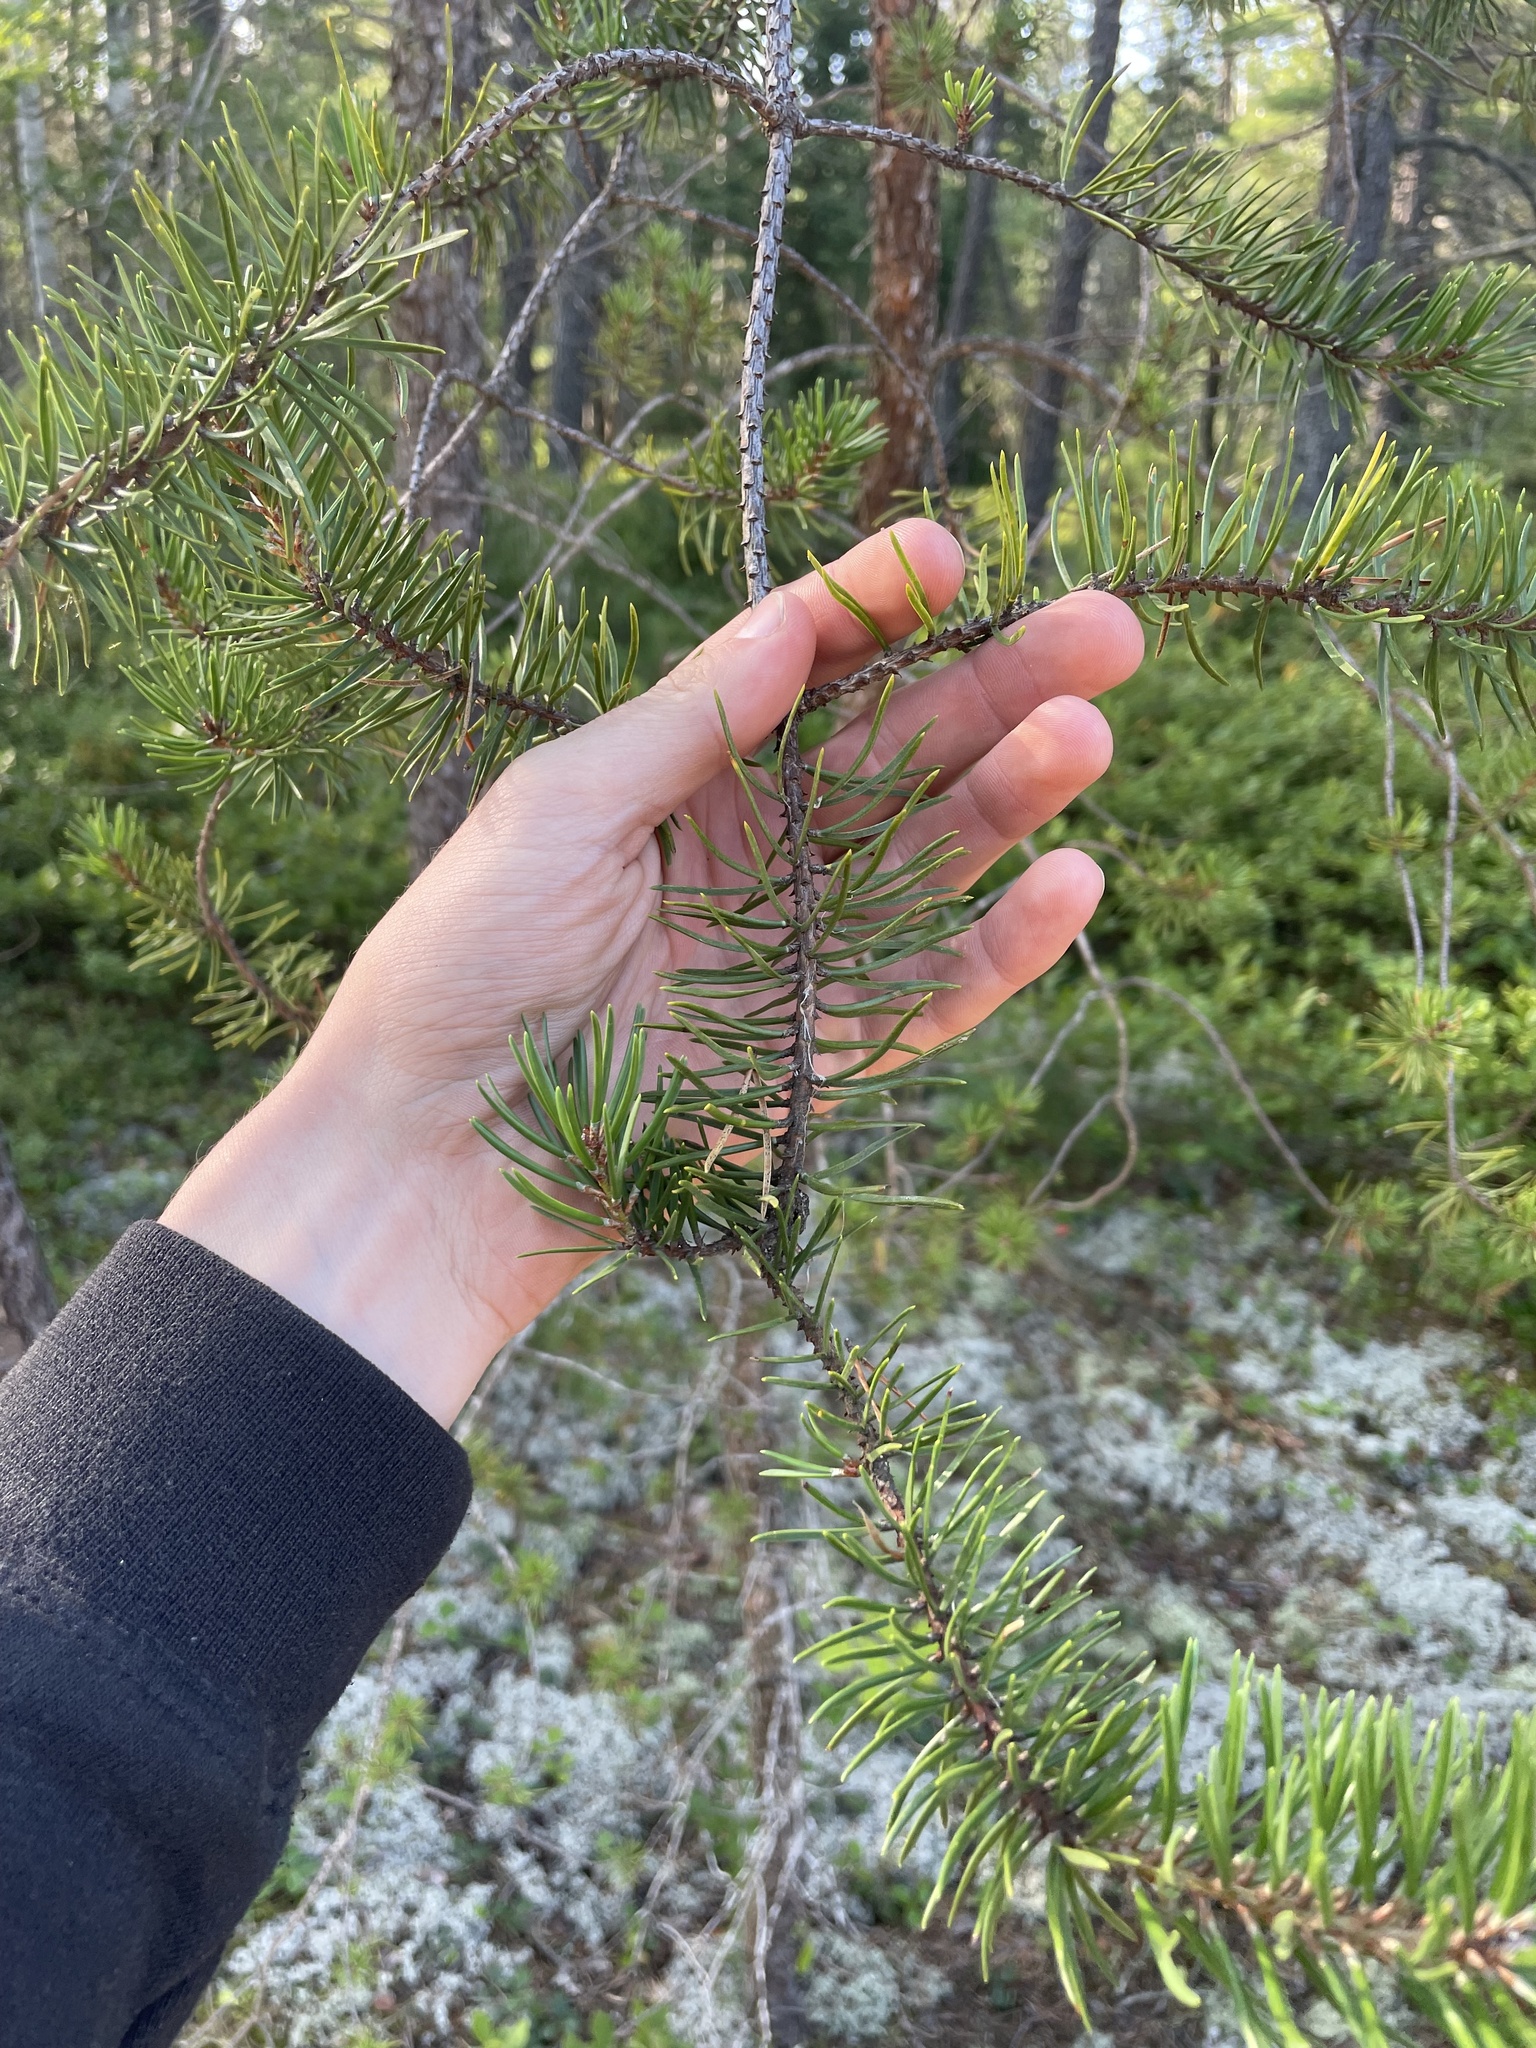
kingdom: Plantae
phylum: Tracheophyta
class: Pinopsida
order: Pinales
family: Pinaceae
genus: Pinus
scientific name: Pinus banksiana
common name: Jack pine
